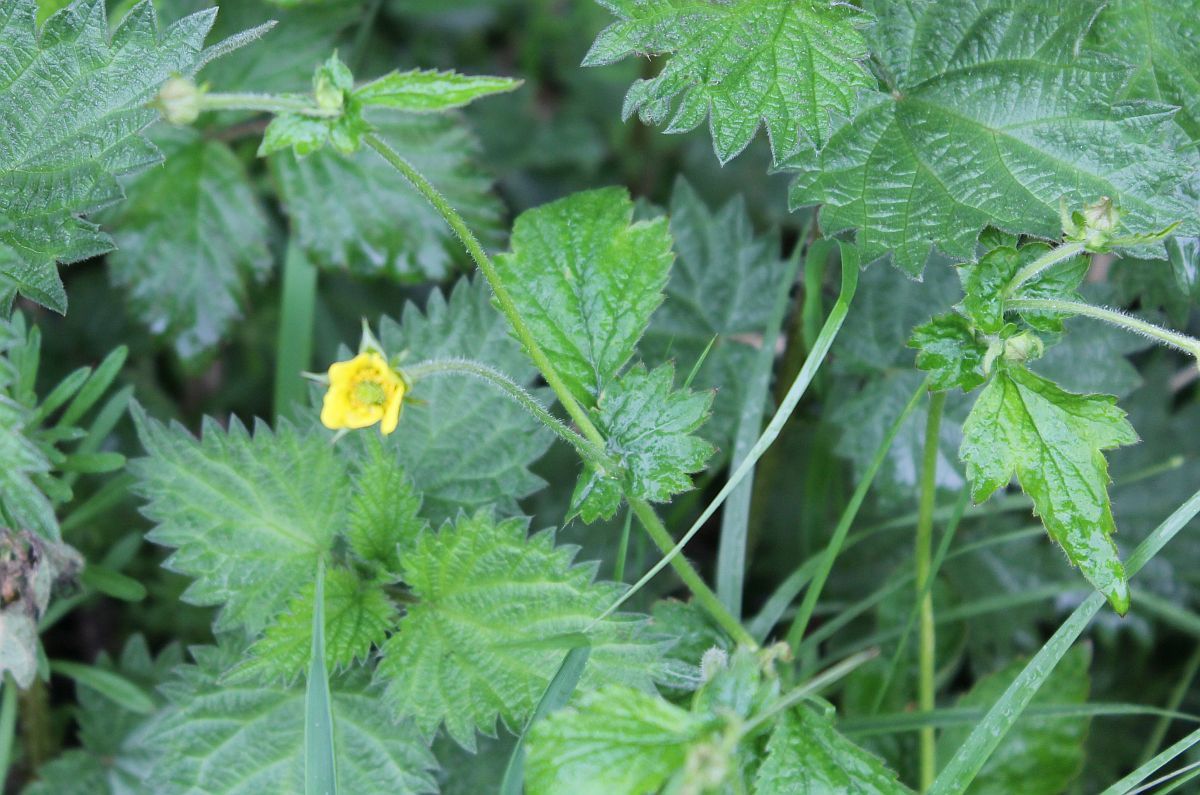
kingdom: Plantae
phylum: Tracheophyta
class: Magnoliopsida
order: Rosales
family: Rosaceae
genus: Geum
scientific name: Geum urbanum
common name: Wood avens
